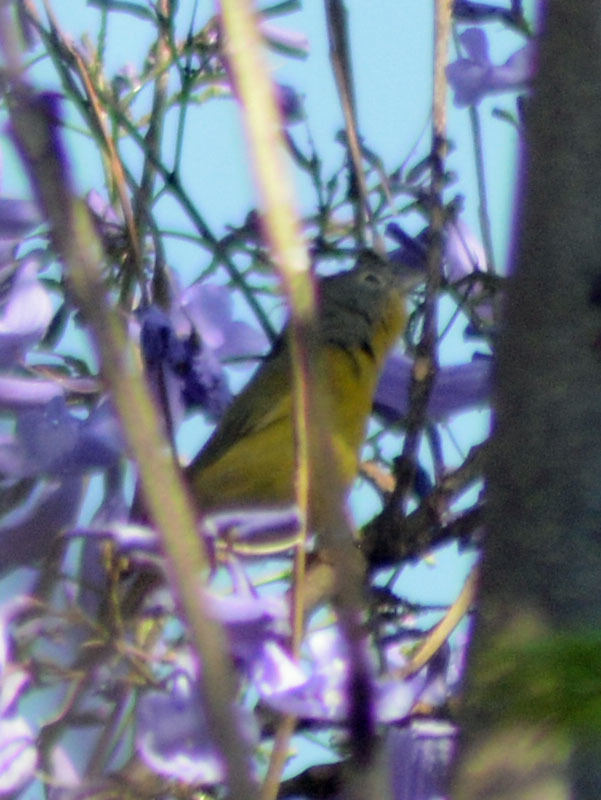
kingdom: Animalia
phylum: Chordata
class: Aves
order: Passeriformes
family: Parulidae
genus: Leiothlypis
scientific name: Leiothlypis ruficapilla
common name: Nashville warbler
